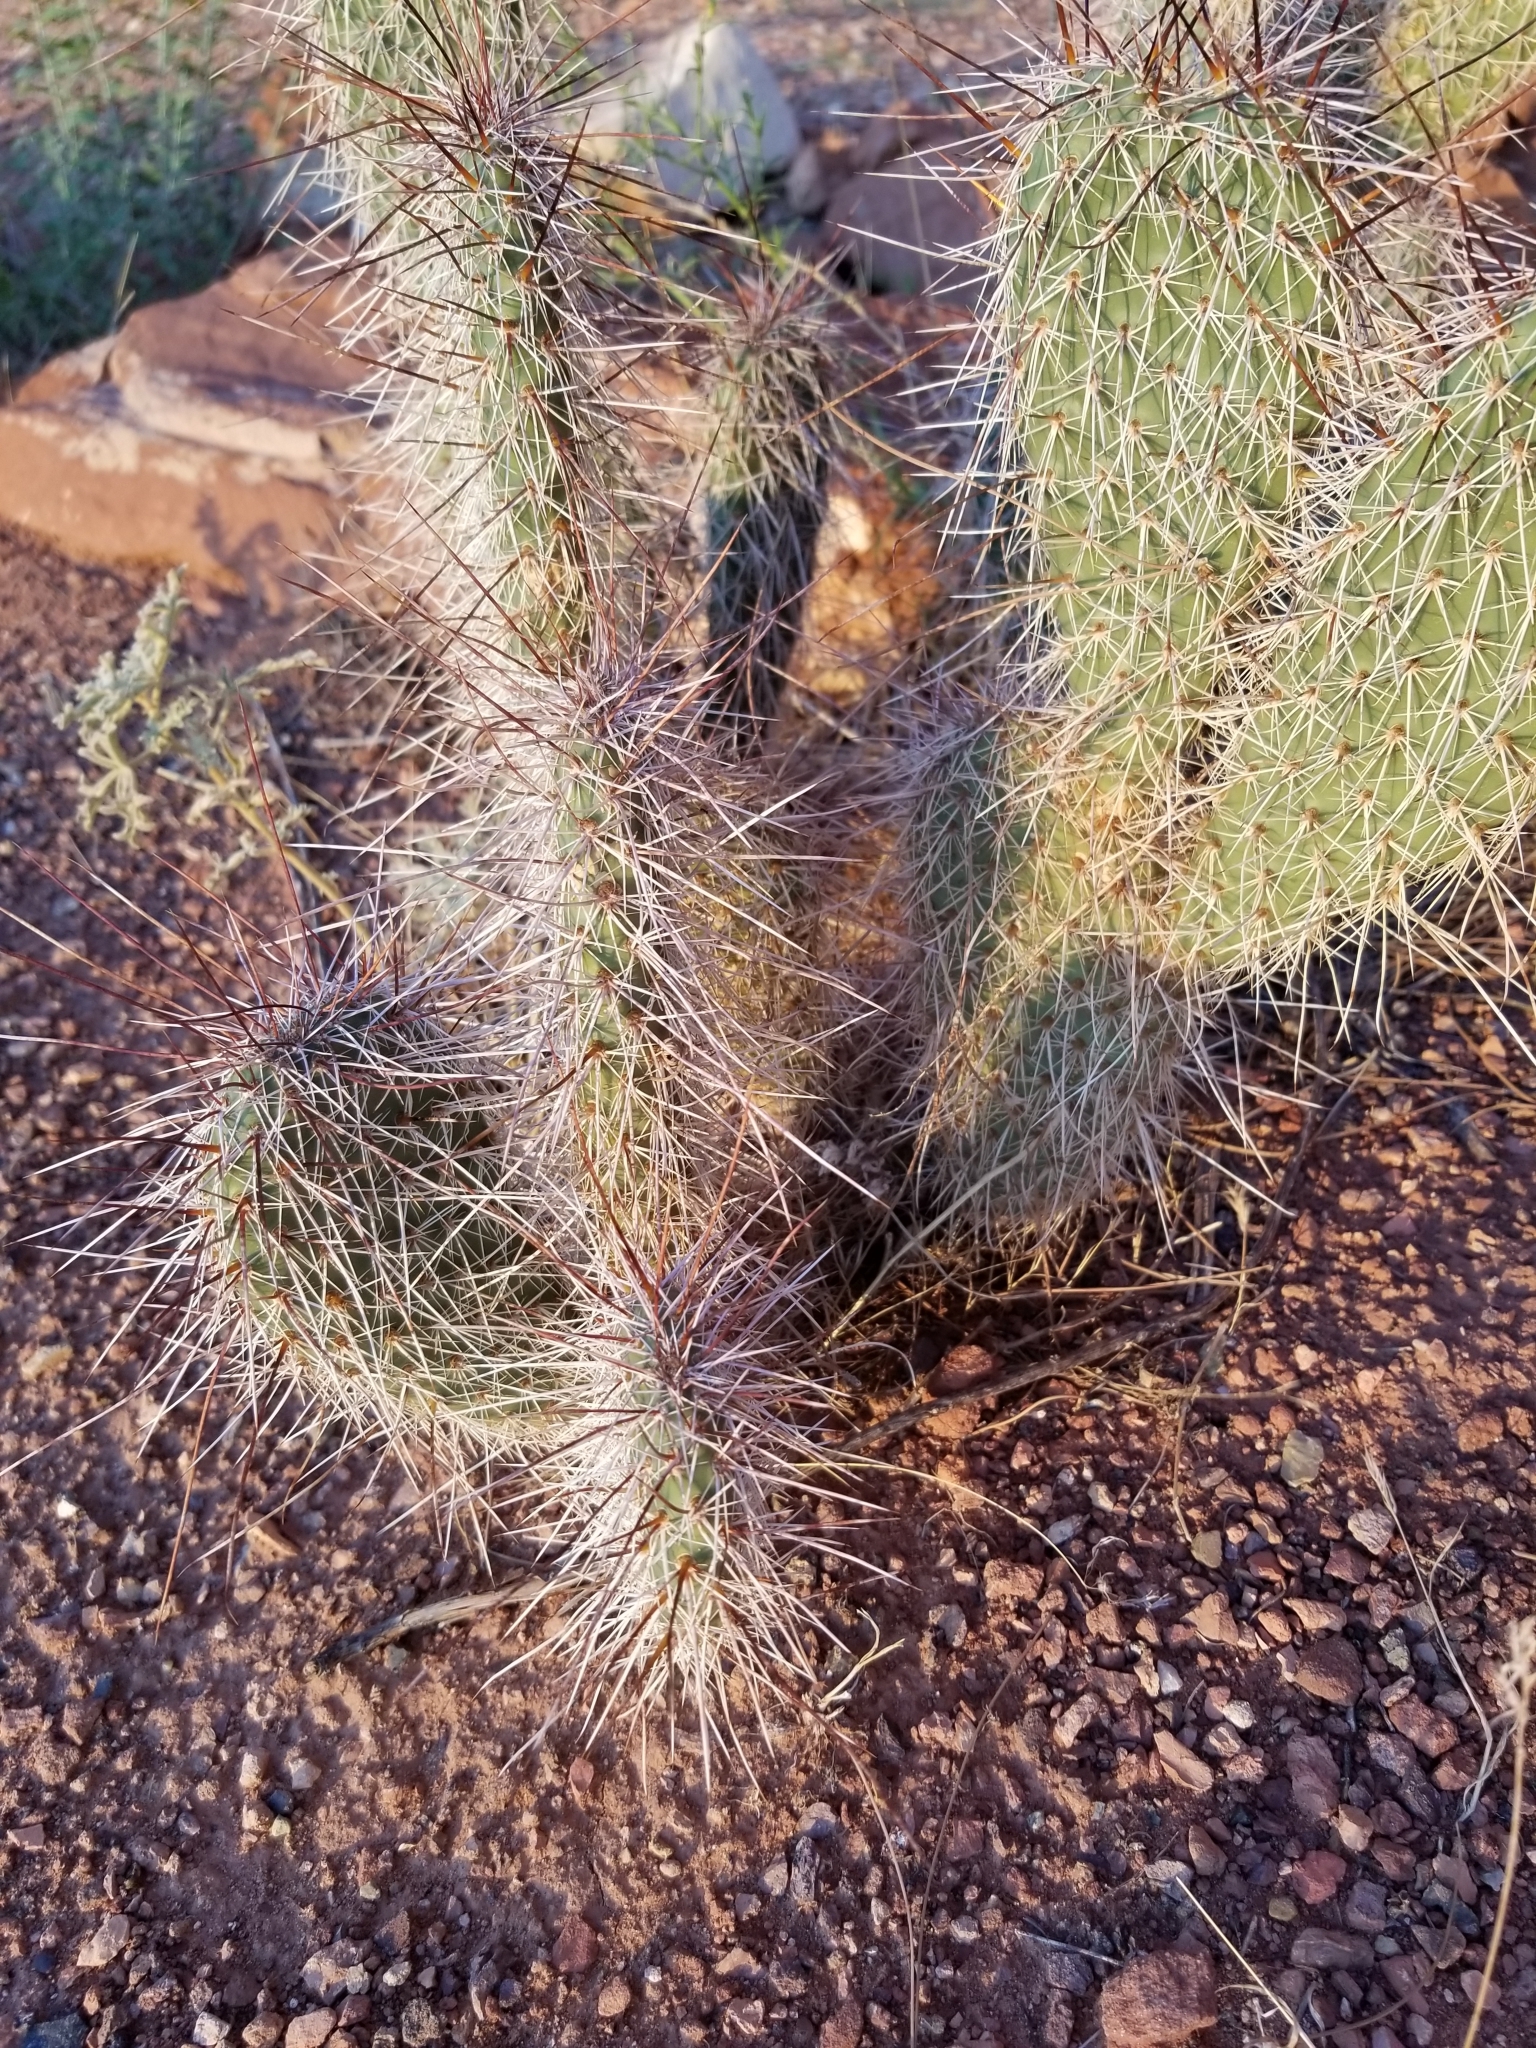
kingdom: Plantae
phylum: Tracheophyta
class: Magnoliopsida
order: Caryophyllales
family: Cactaceae
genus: Opuntia
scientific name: Opuntia polyacantha
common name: Plains prickly-pear
